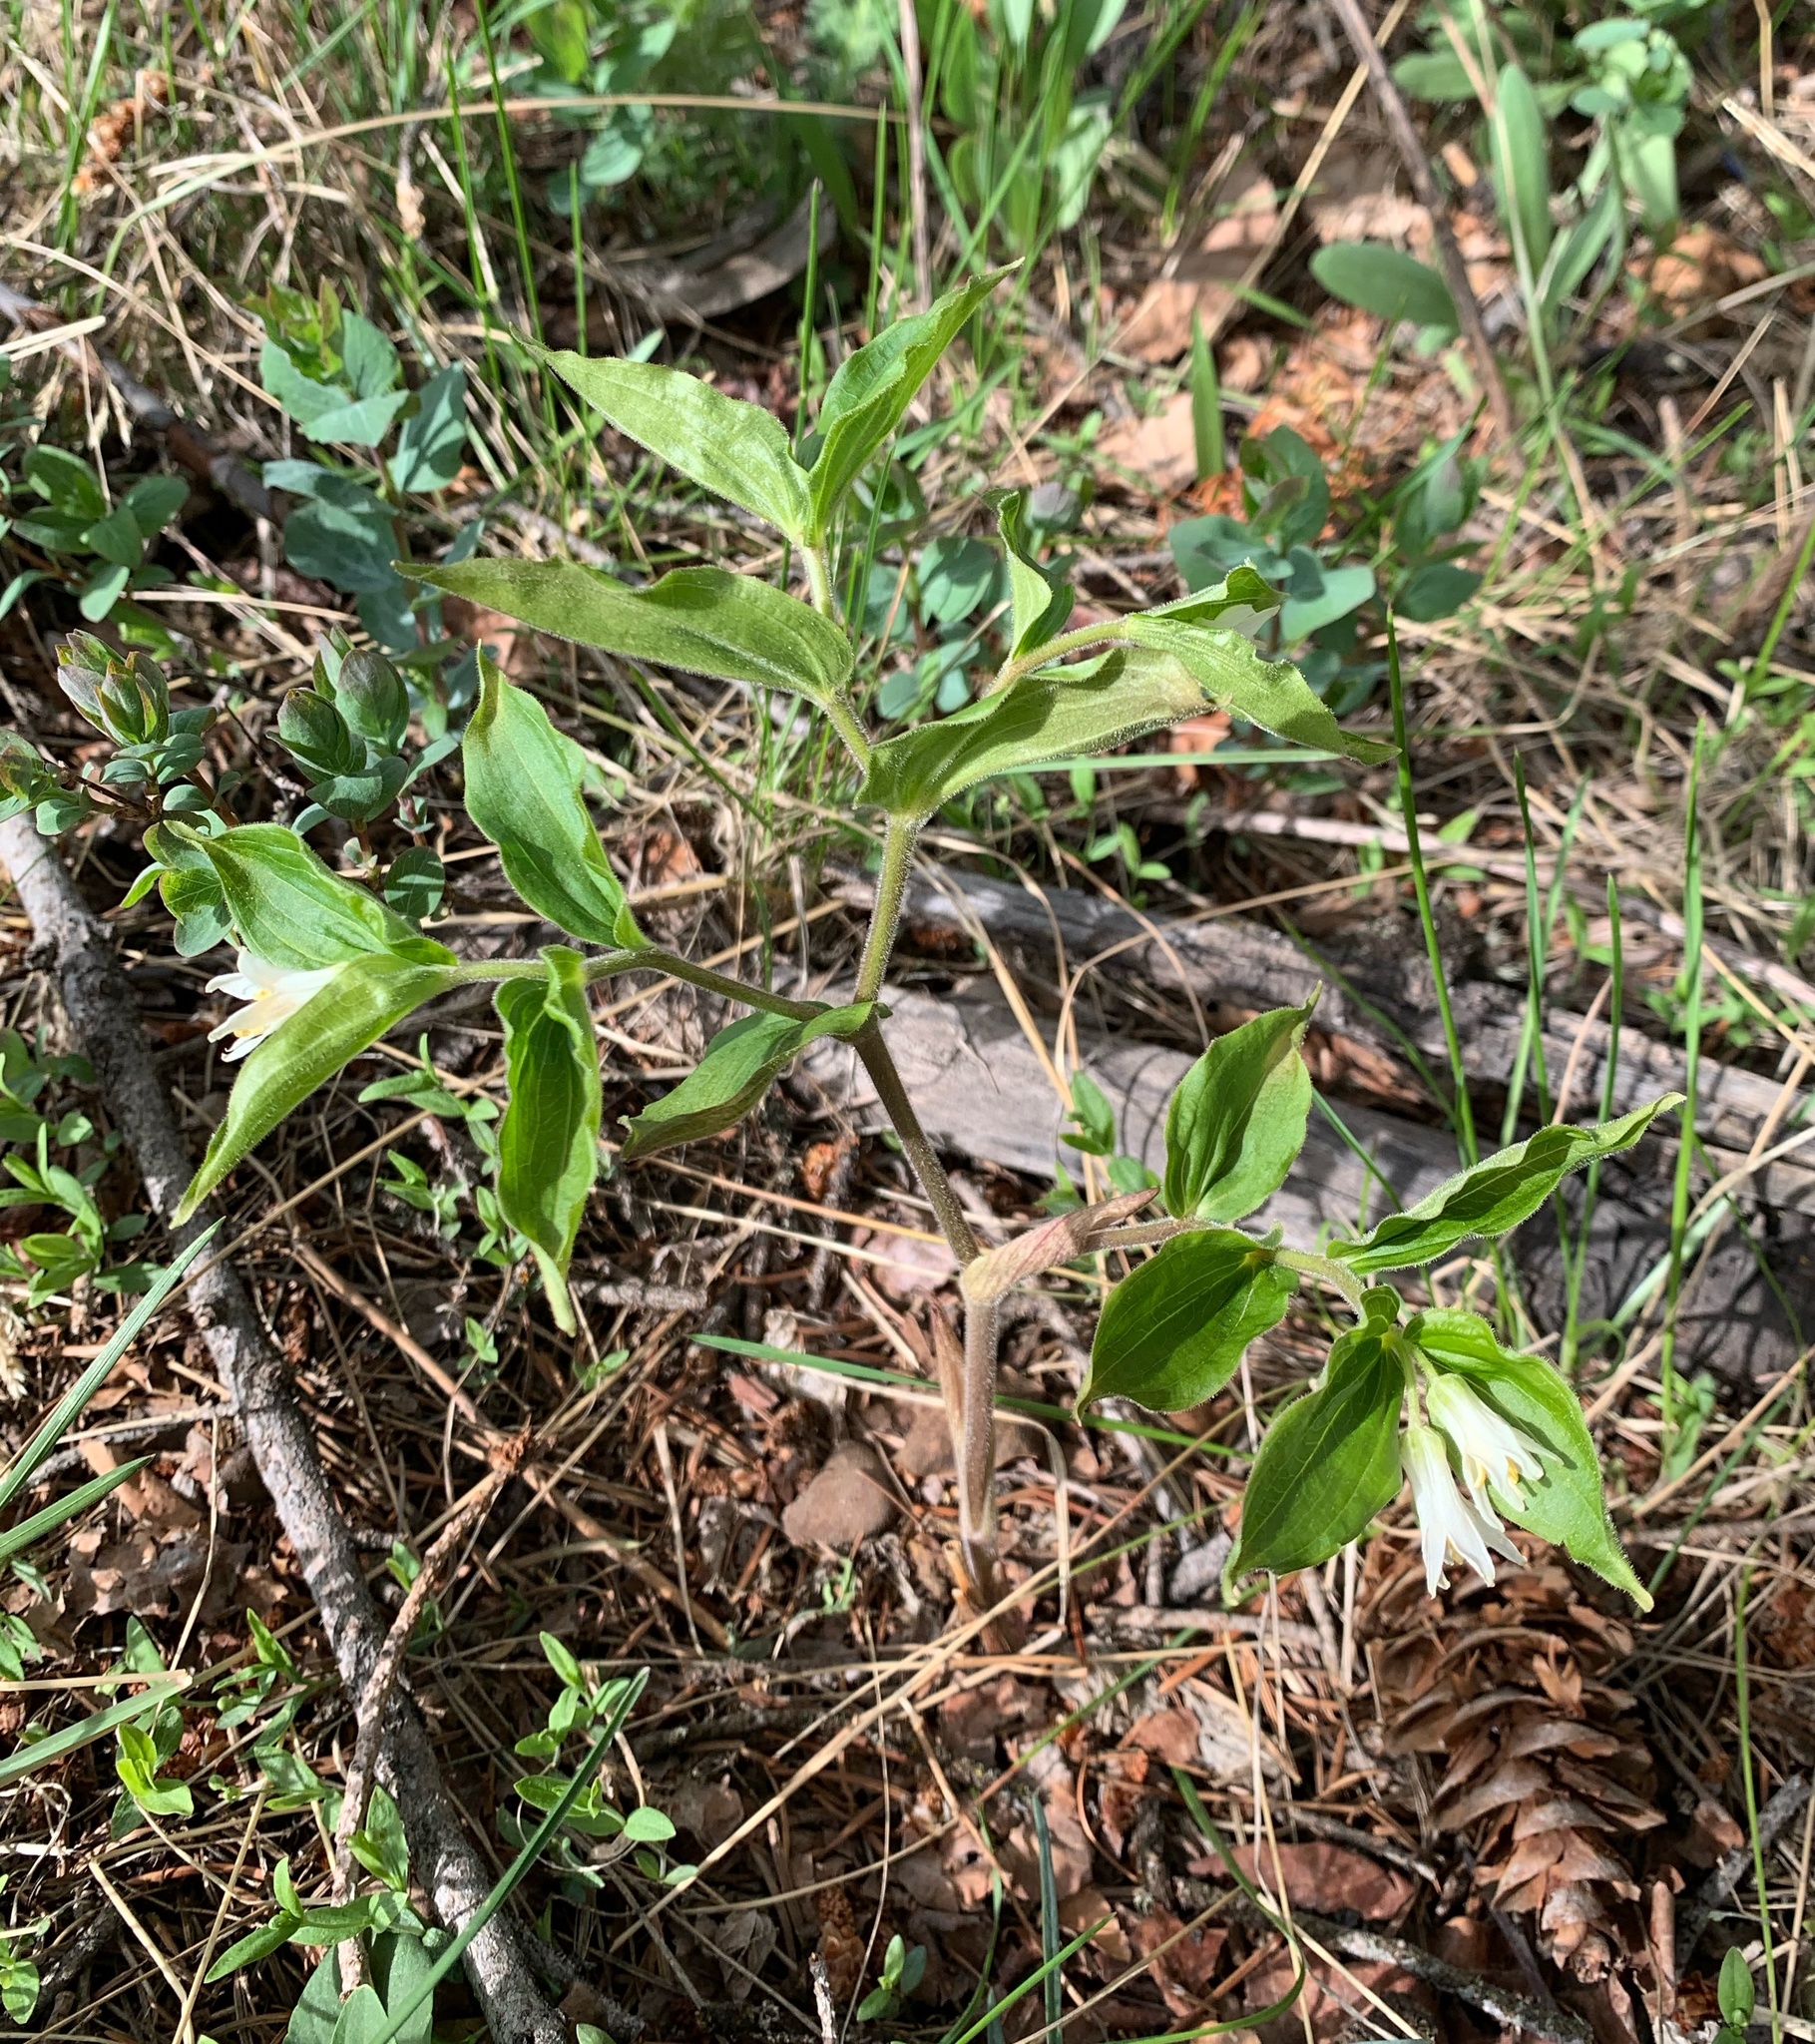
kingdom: Plantae
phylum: Tracheophyta
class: Liliopsida
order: Liliales
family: Liliaceae
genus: Prosartes
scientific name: Prosartes trachycarpa
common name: Rough-fruit fairy-bells
